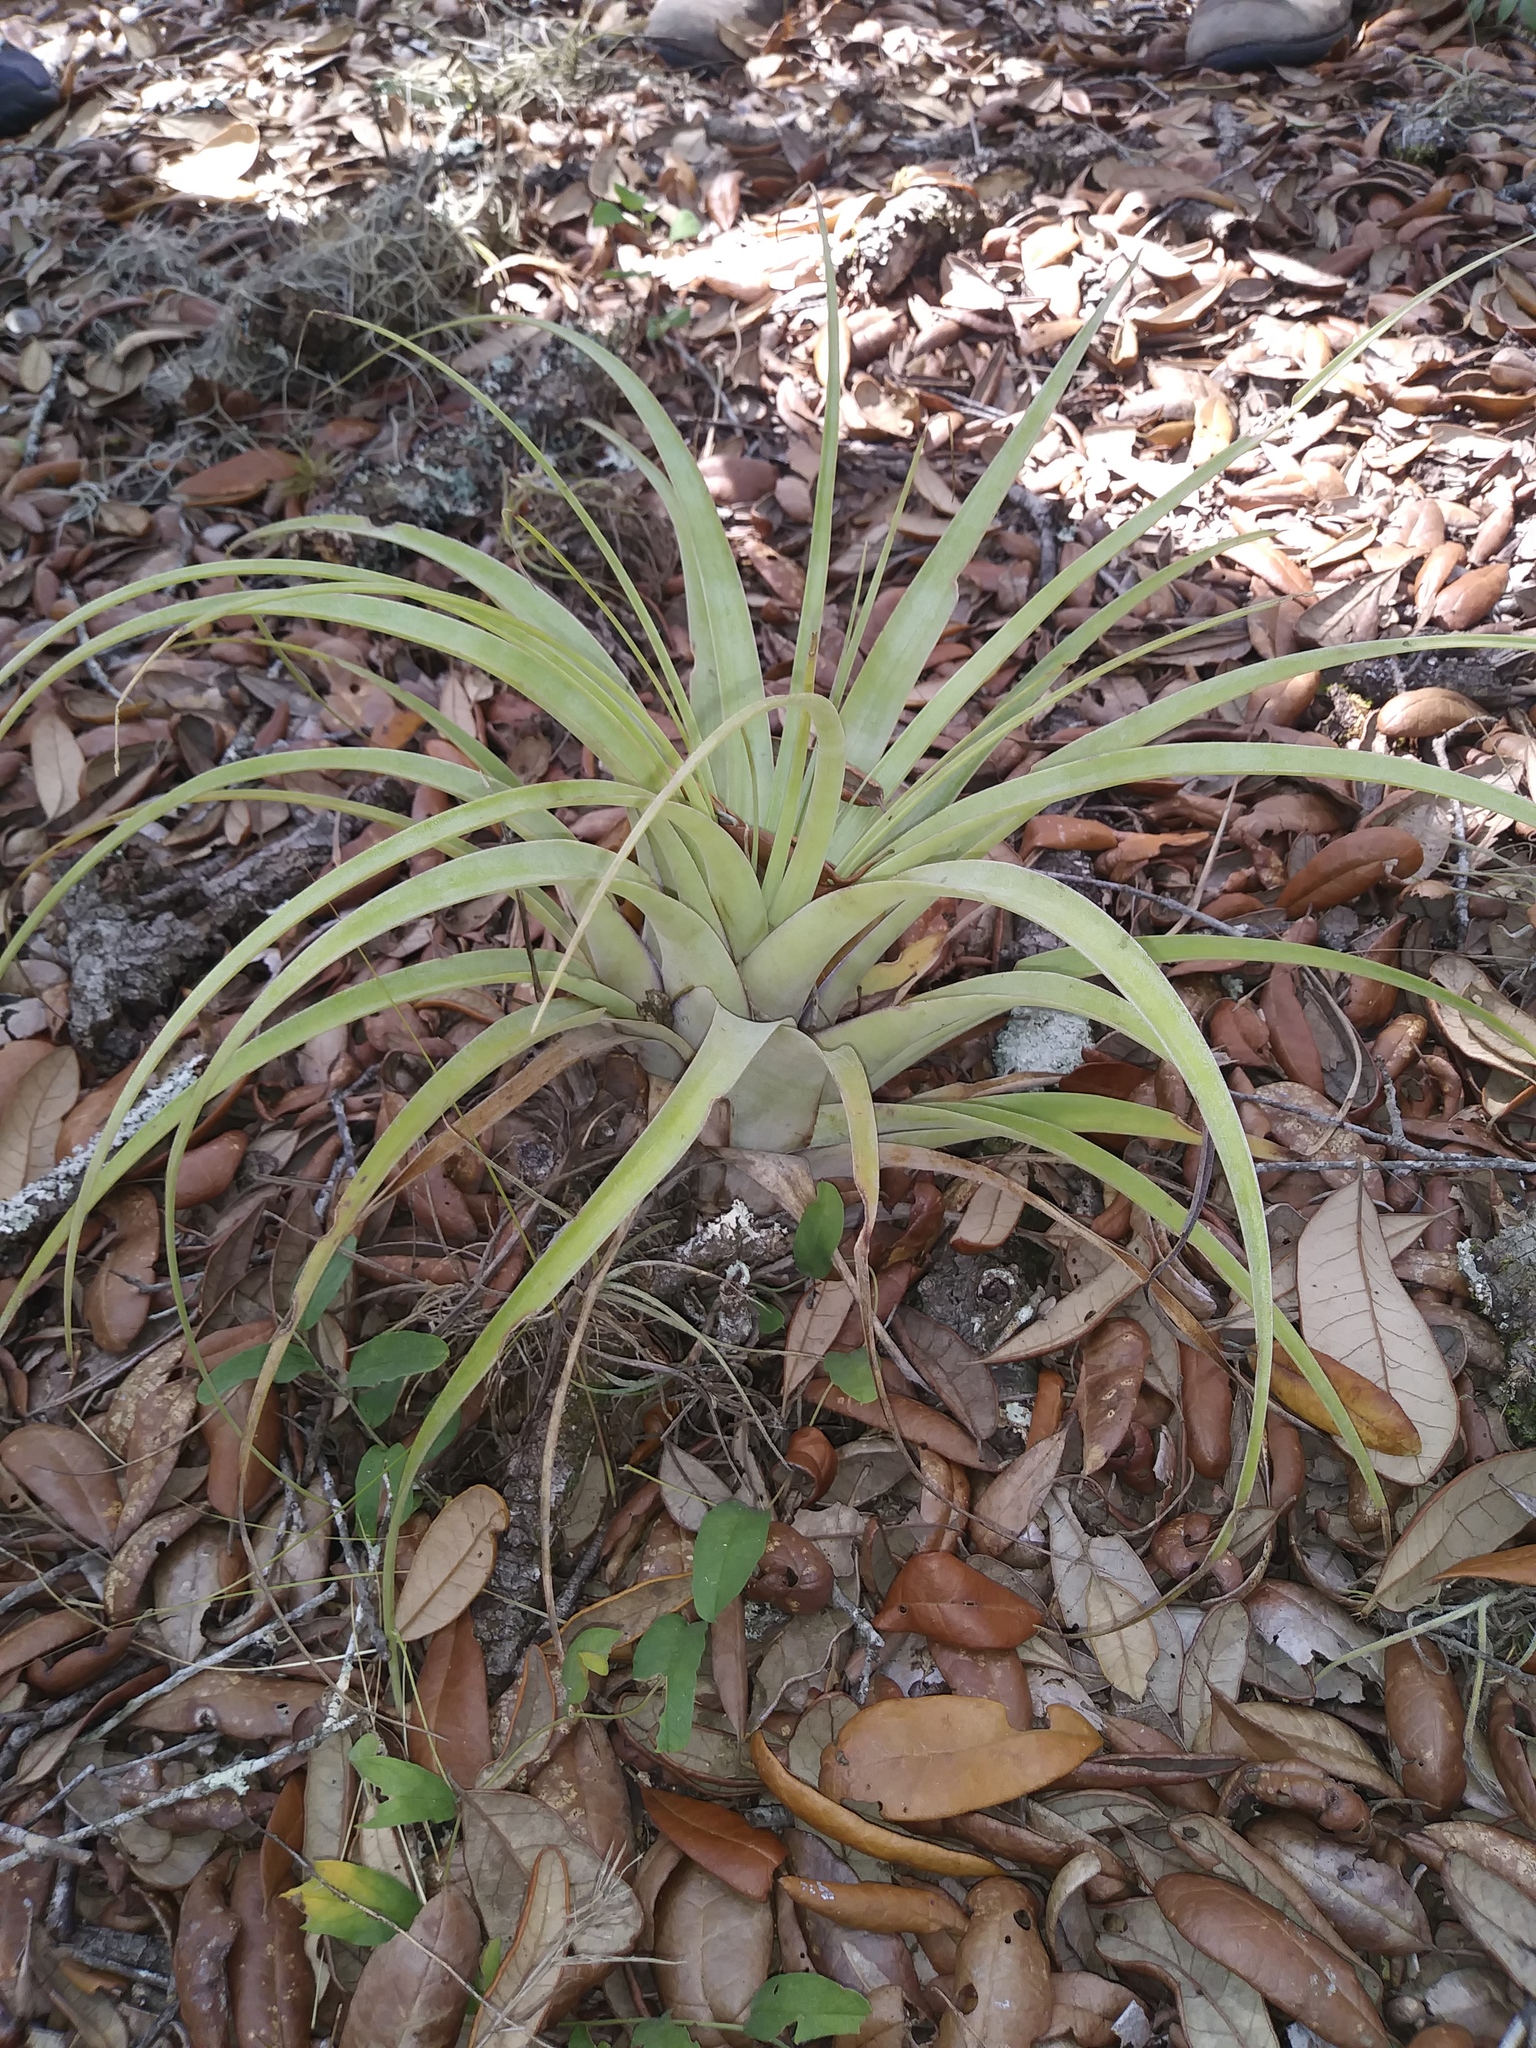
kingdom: Plantae
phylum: Tracheophyta
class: Liliopsida
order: Poales
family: Bromeliaceae
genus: Tillandsia
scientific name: Tillandsia utriculata
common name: Wild pine
